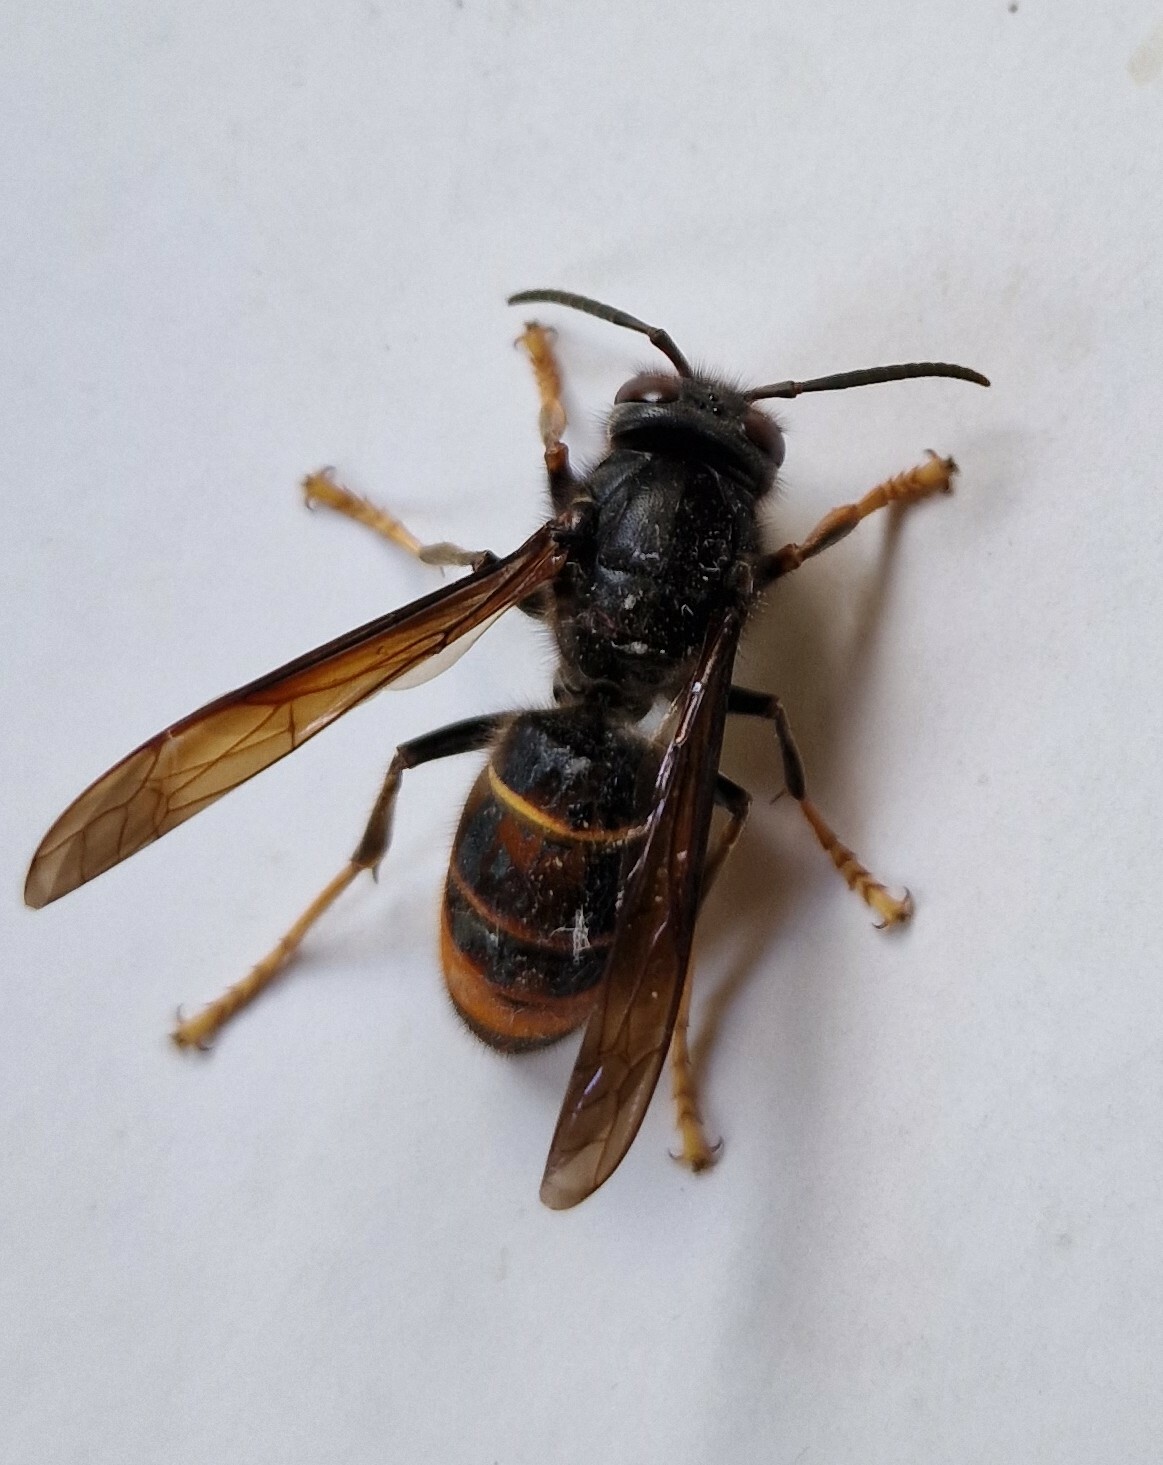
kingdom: Animalia
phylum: Arthropoda
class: Insecta
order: Hymenoptera
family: Vespidae
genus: Vespa
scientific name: Vespa velutina
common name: Asian hornet
